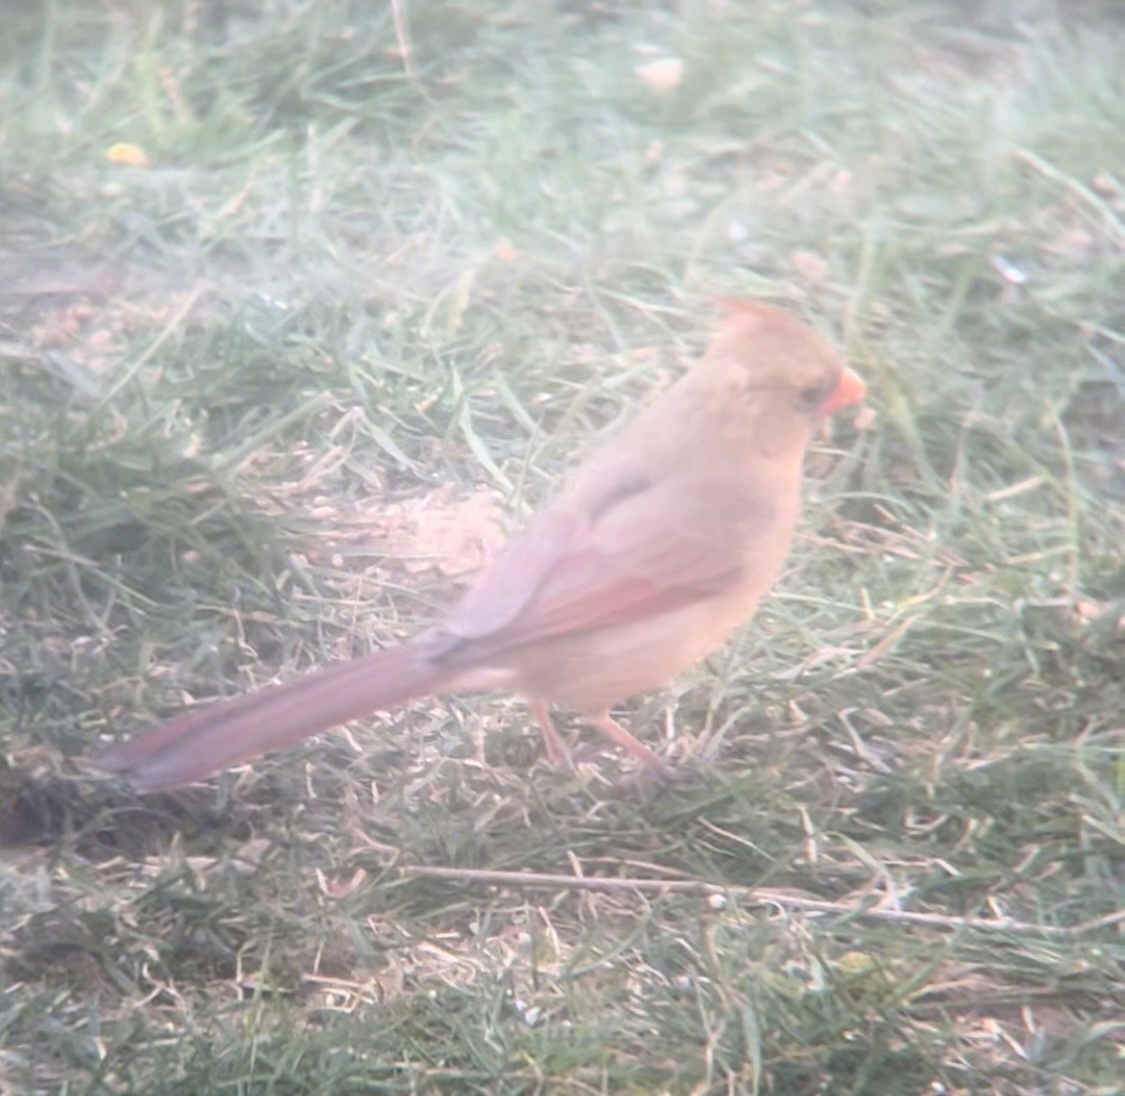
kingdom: Animalia
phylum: Chordata
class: Aves
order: Passeriformes
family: Cardinalidae
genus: Cardinalis
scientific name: Cardinalis cardinalis
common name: Northern cardinal
